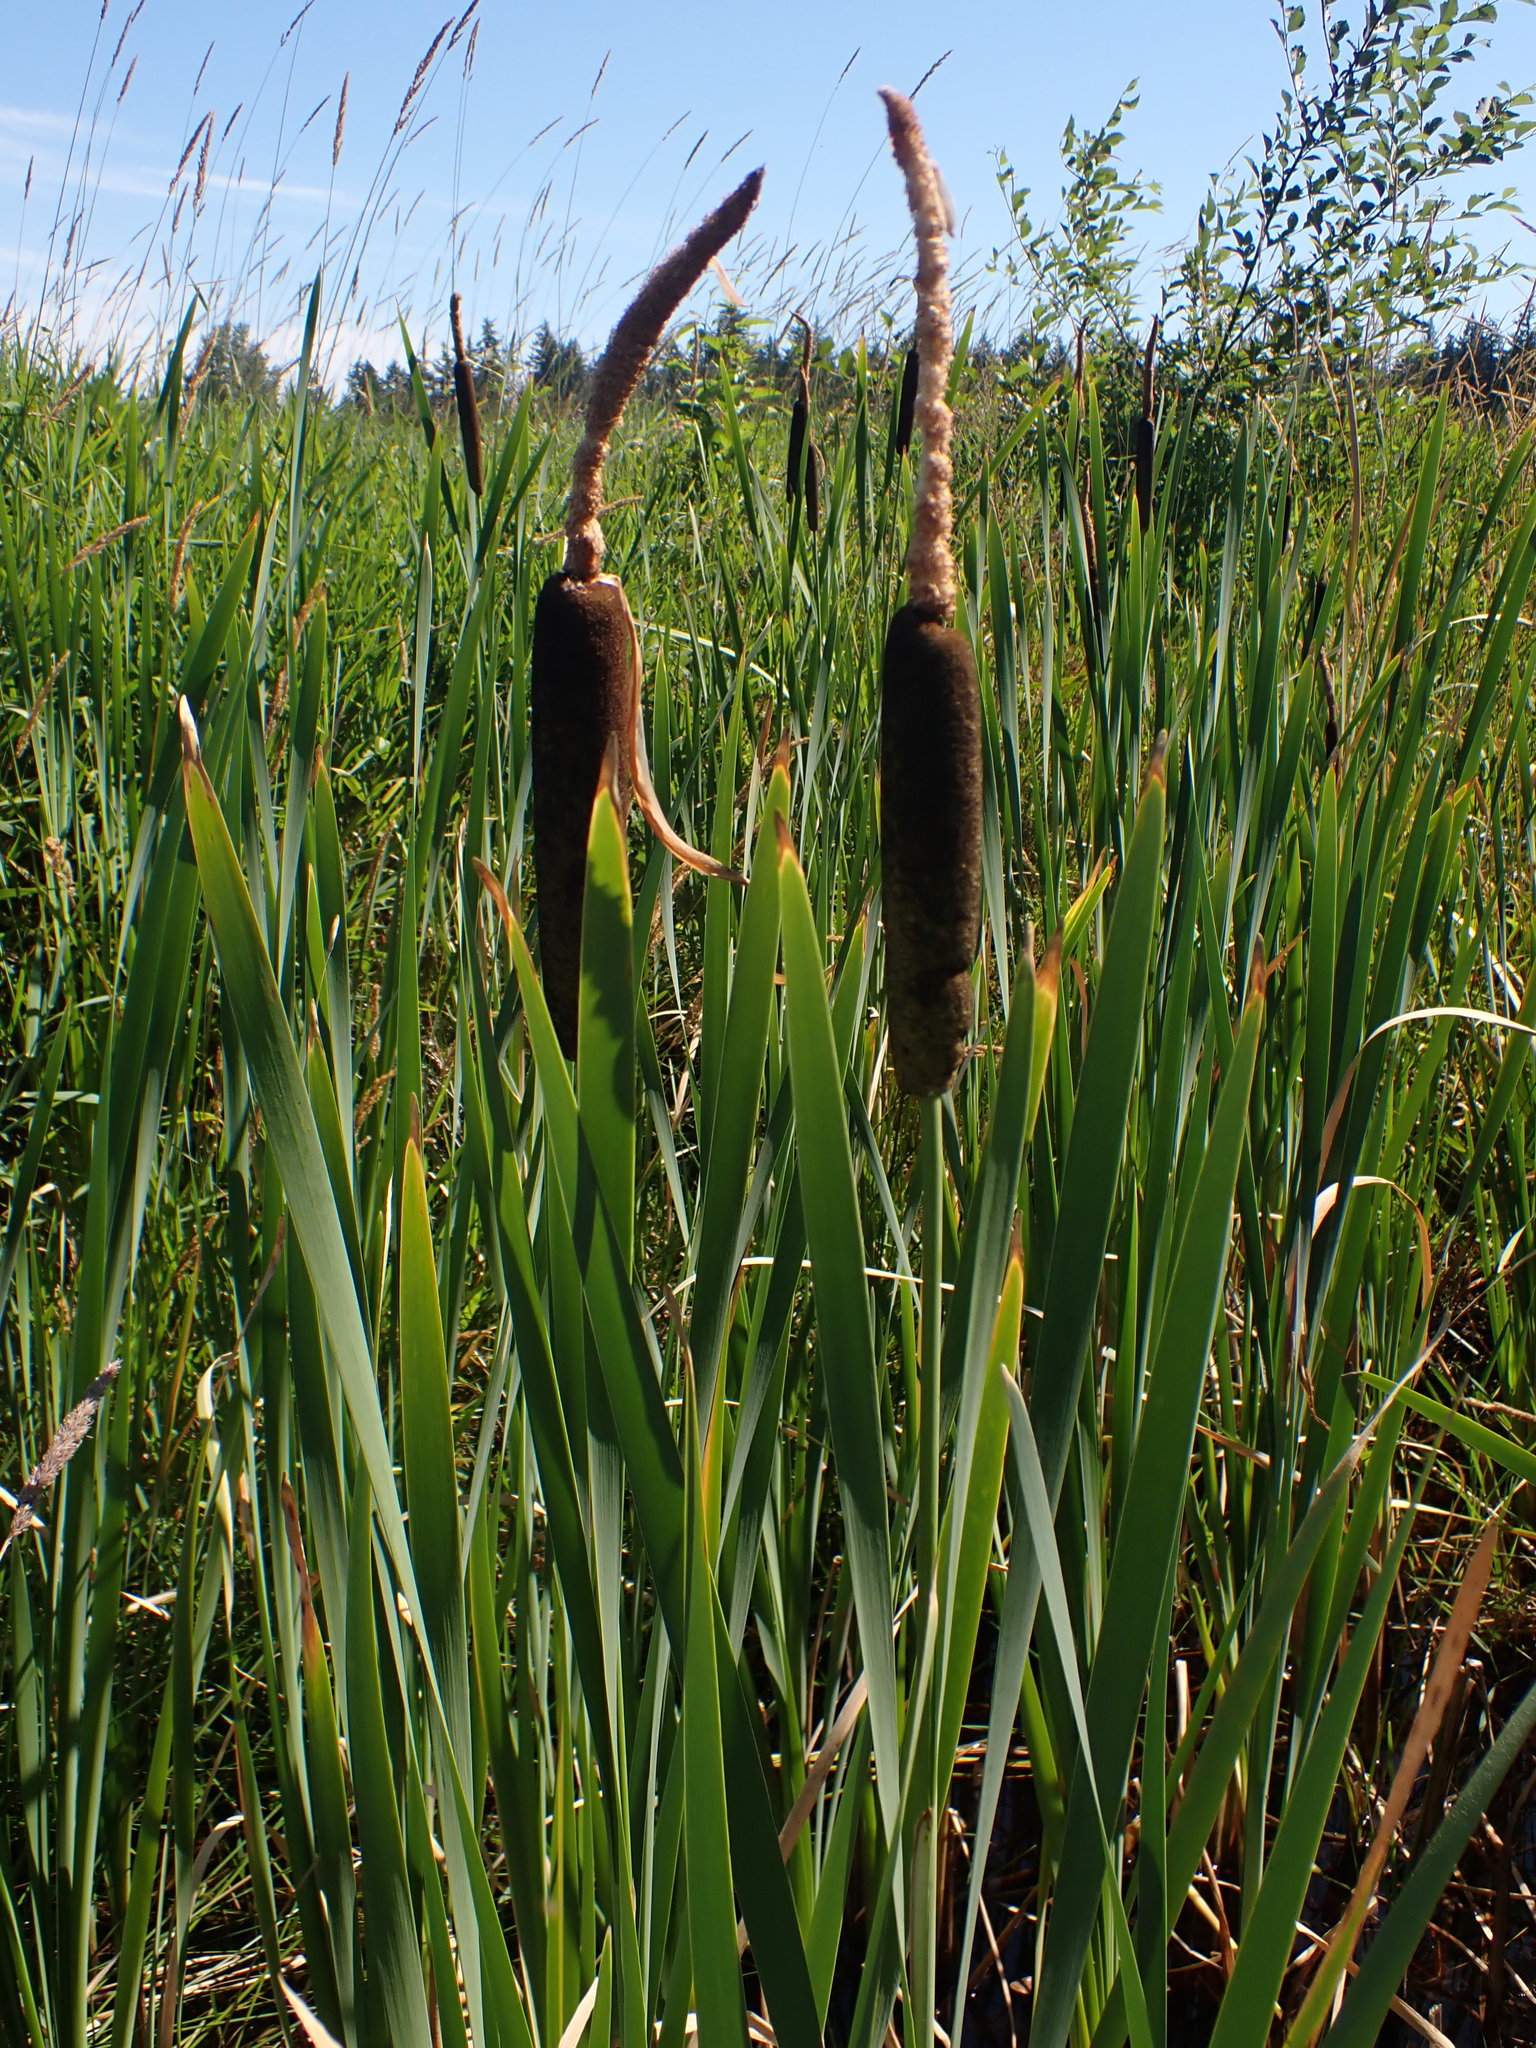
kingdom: Plantae
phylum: Tracheophyta
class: Liliopsida
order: Poales
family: Typhaceae
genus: Typha
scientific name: Typha latifolia
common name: Broadleaf cattail
